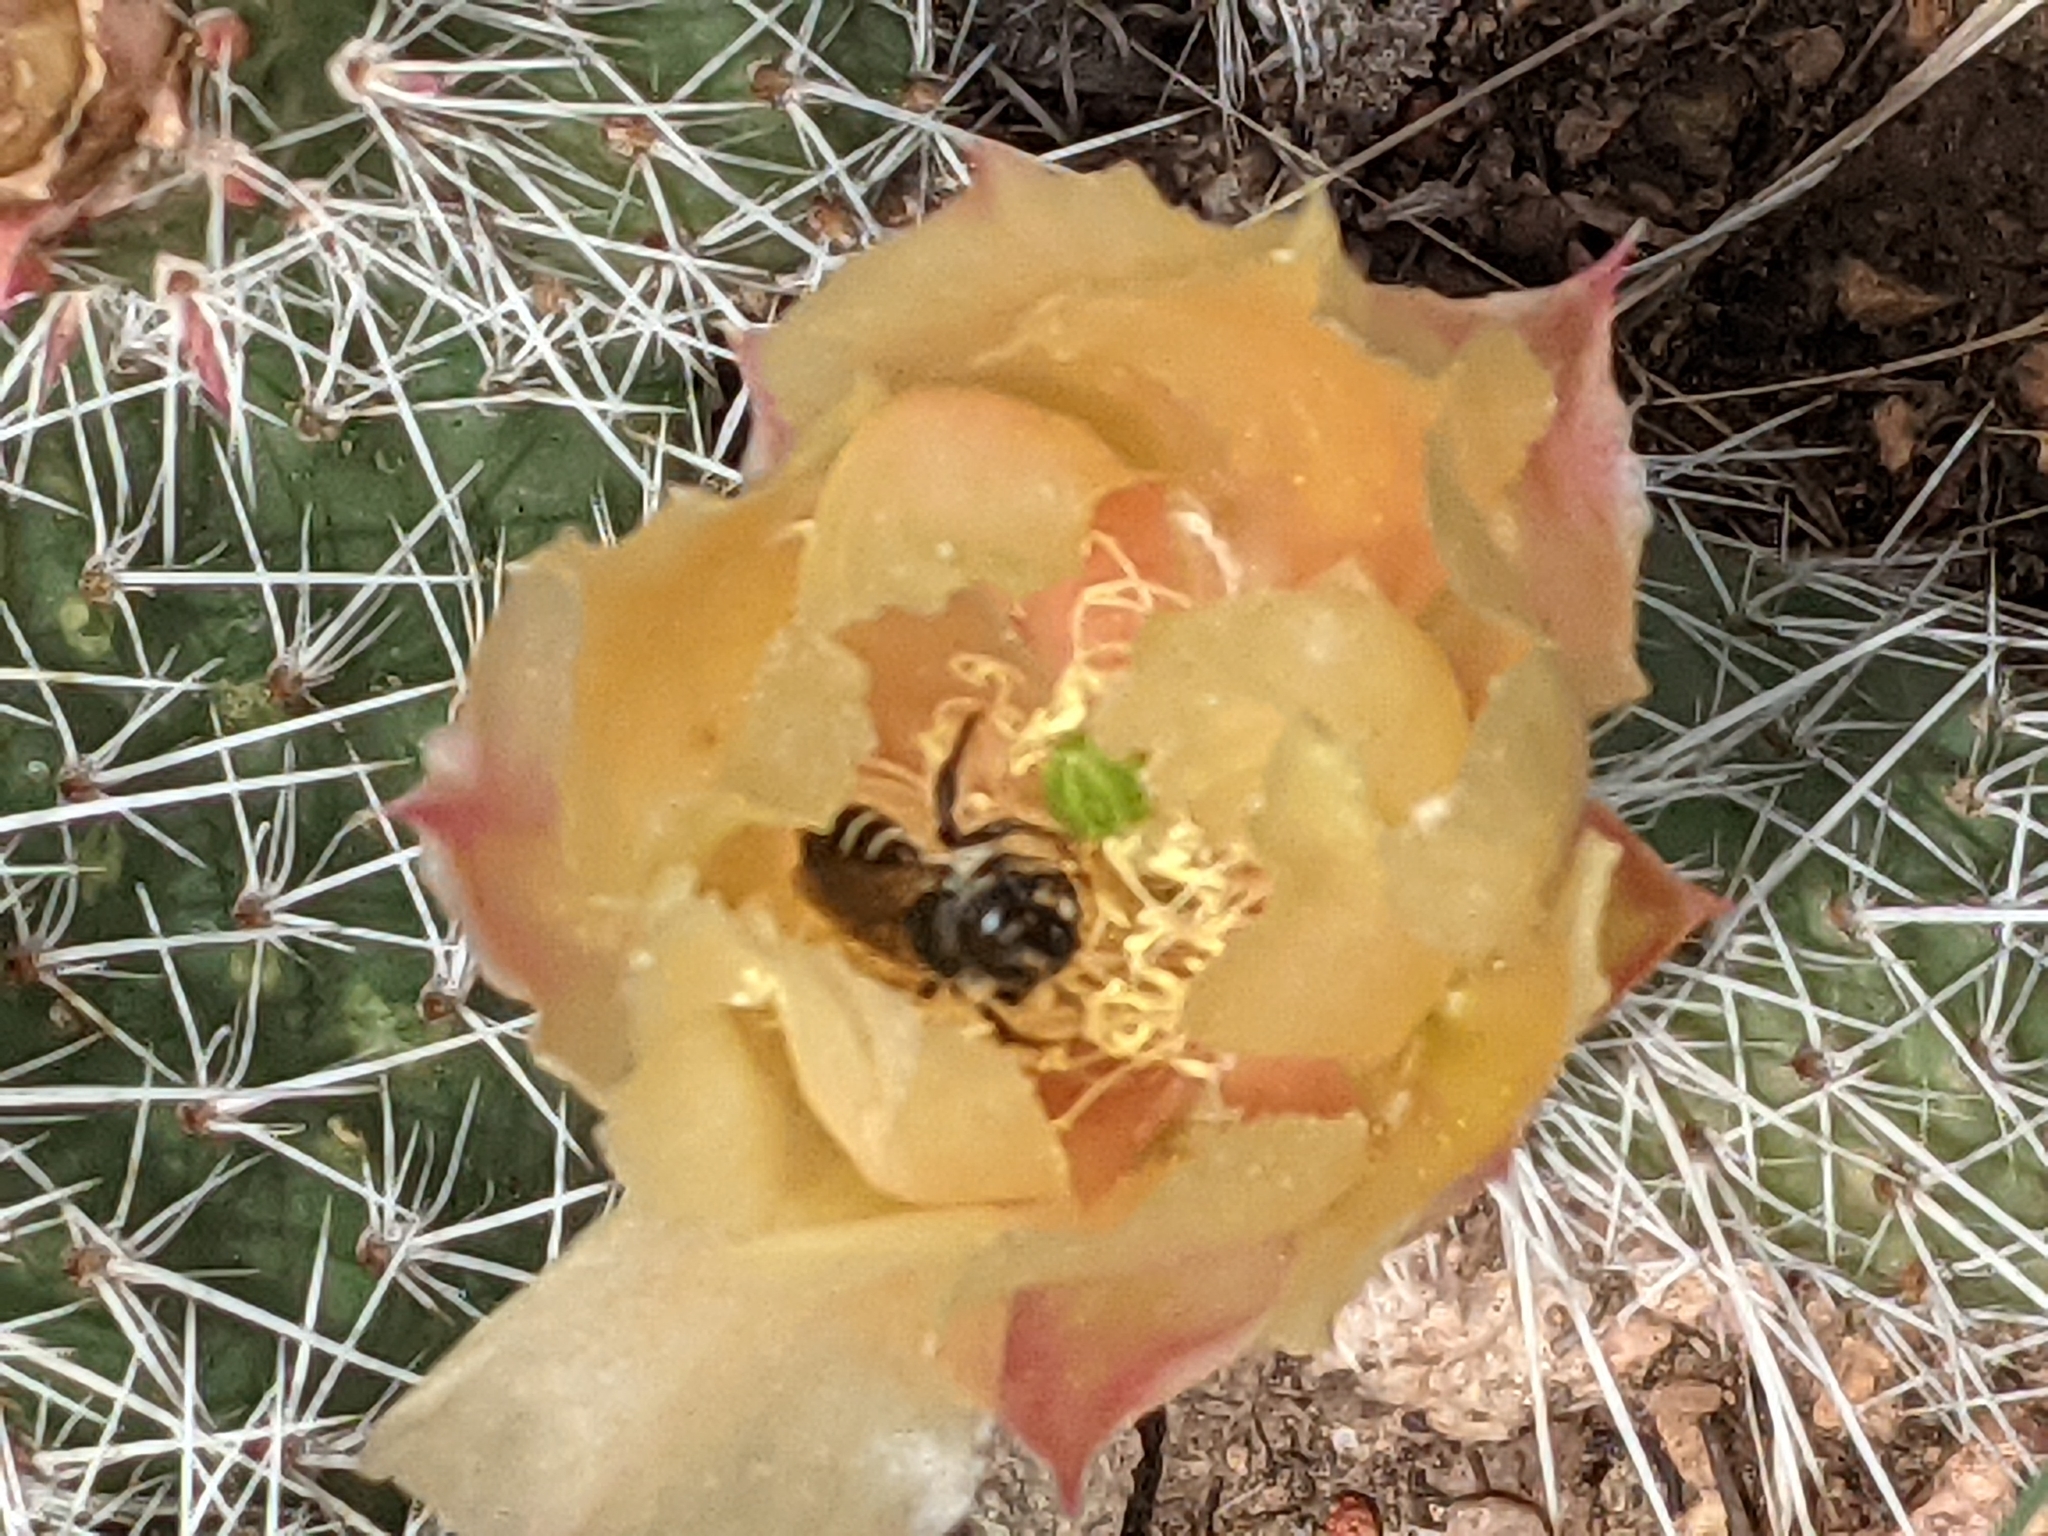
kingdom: Plantae
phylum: Tracheophyta
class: Magnoliopsida
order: Caryophyllales
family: Cactaceae
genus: Opuntia
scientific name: Opuntia polyacantha
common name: Plains prickly-pear
